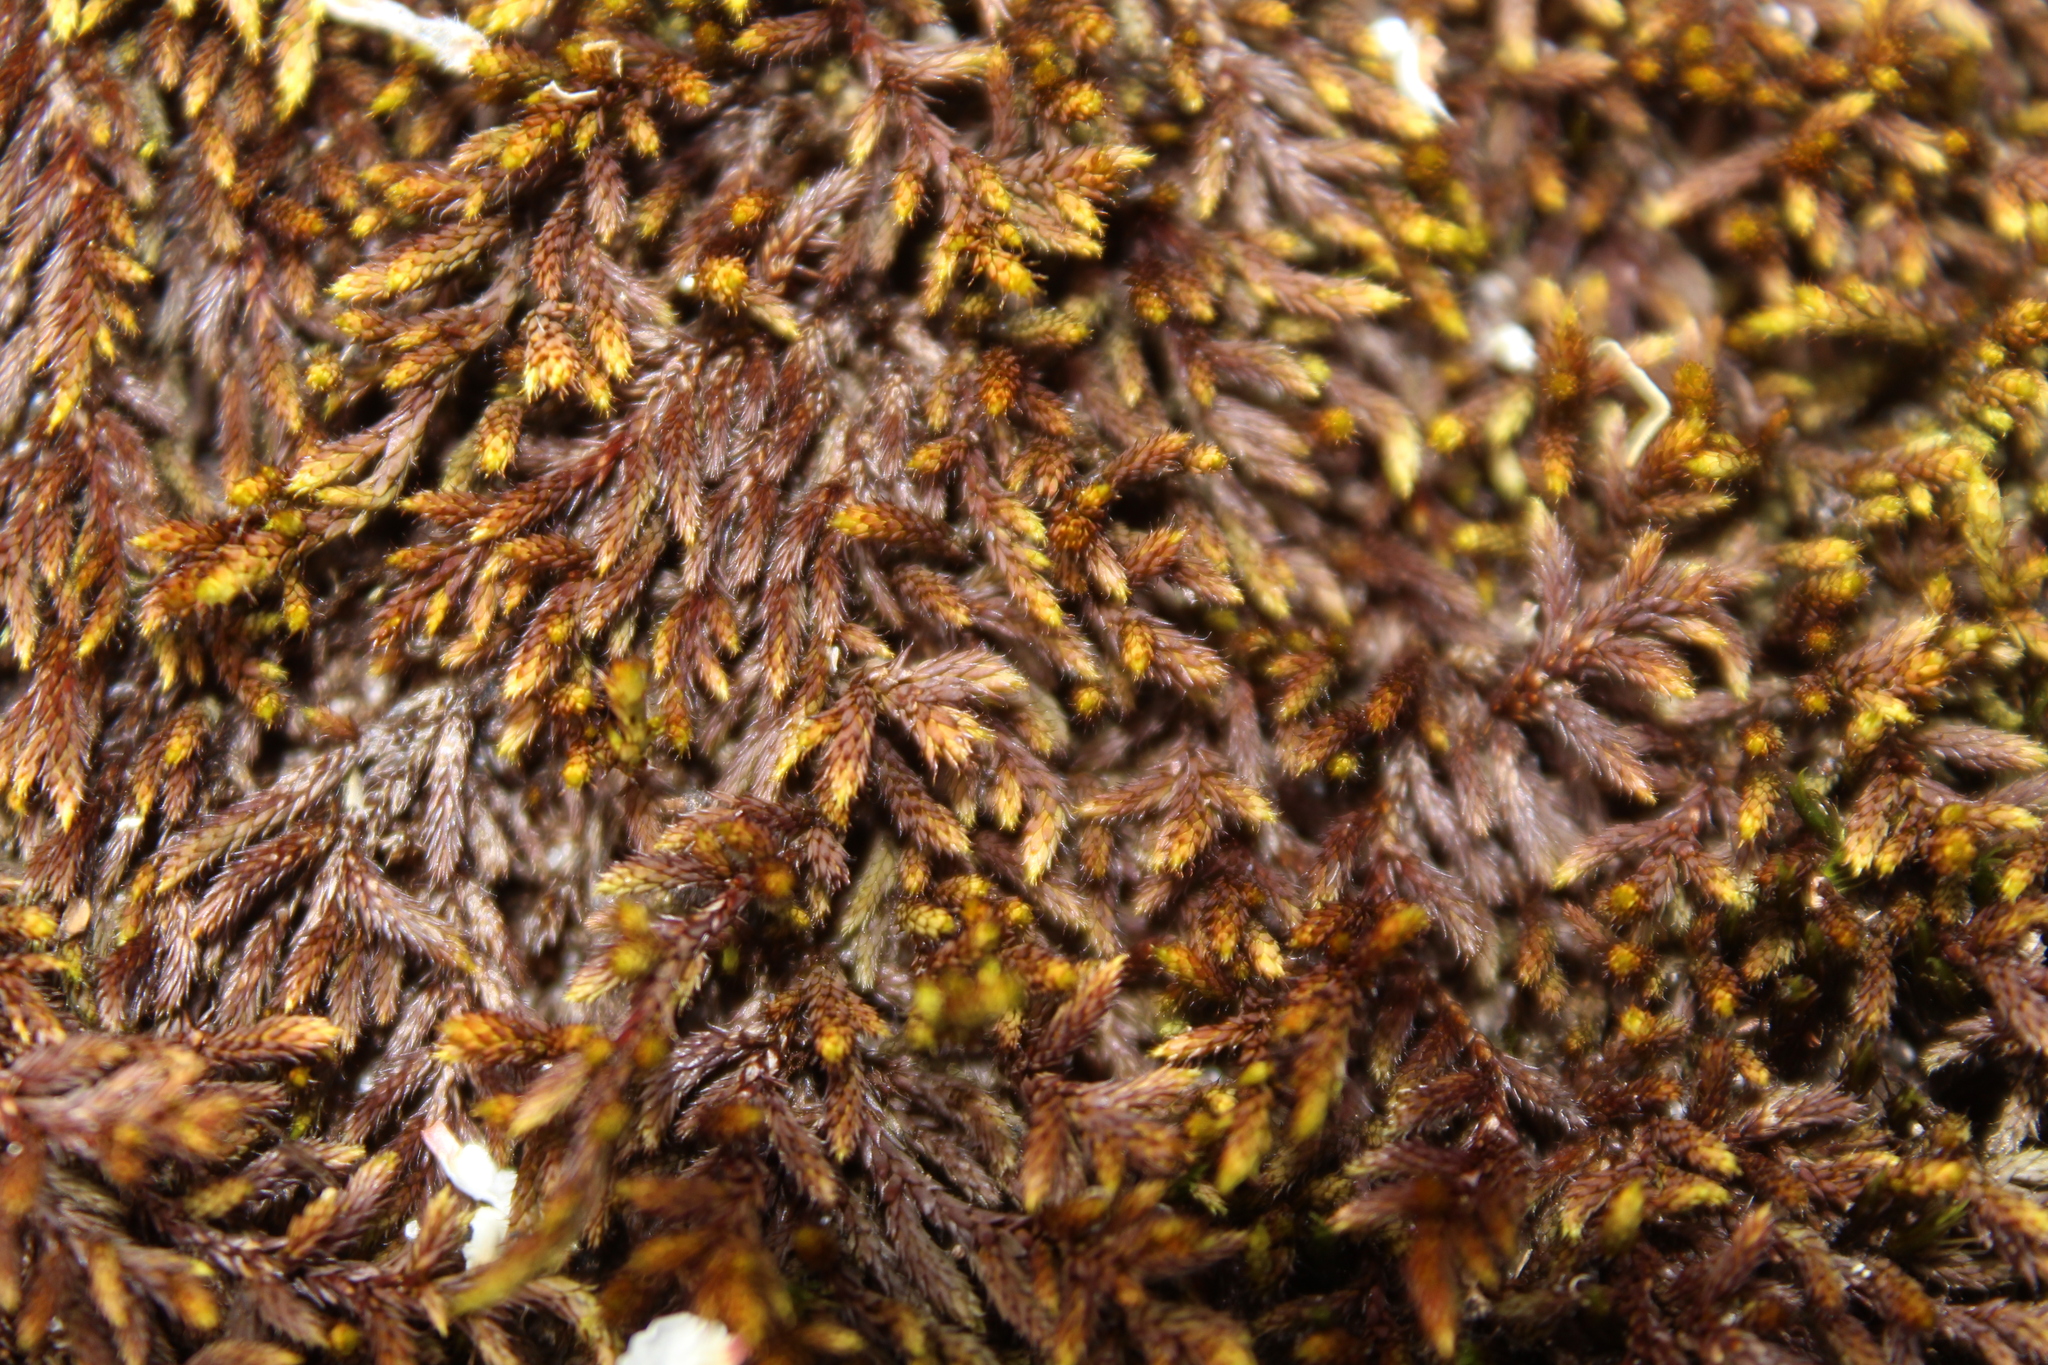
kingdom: Plantae
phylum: Bryophyta
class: Bryopsida
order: Hedwigiales
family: Hedwigiaceae
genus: Rhacocarpus
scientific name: Rhacocarpus purpurascens
